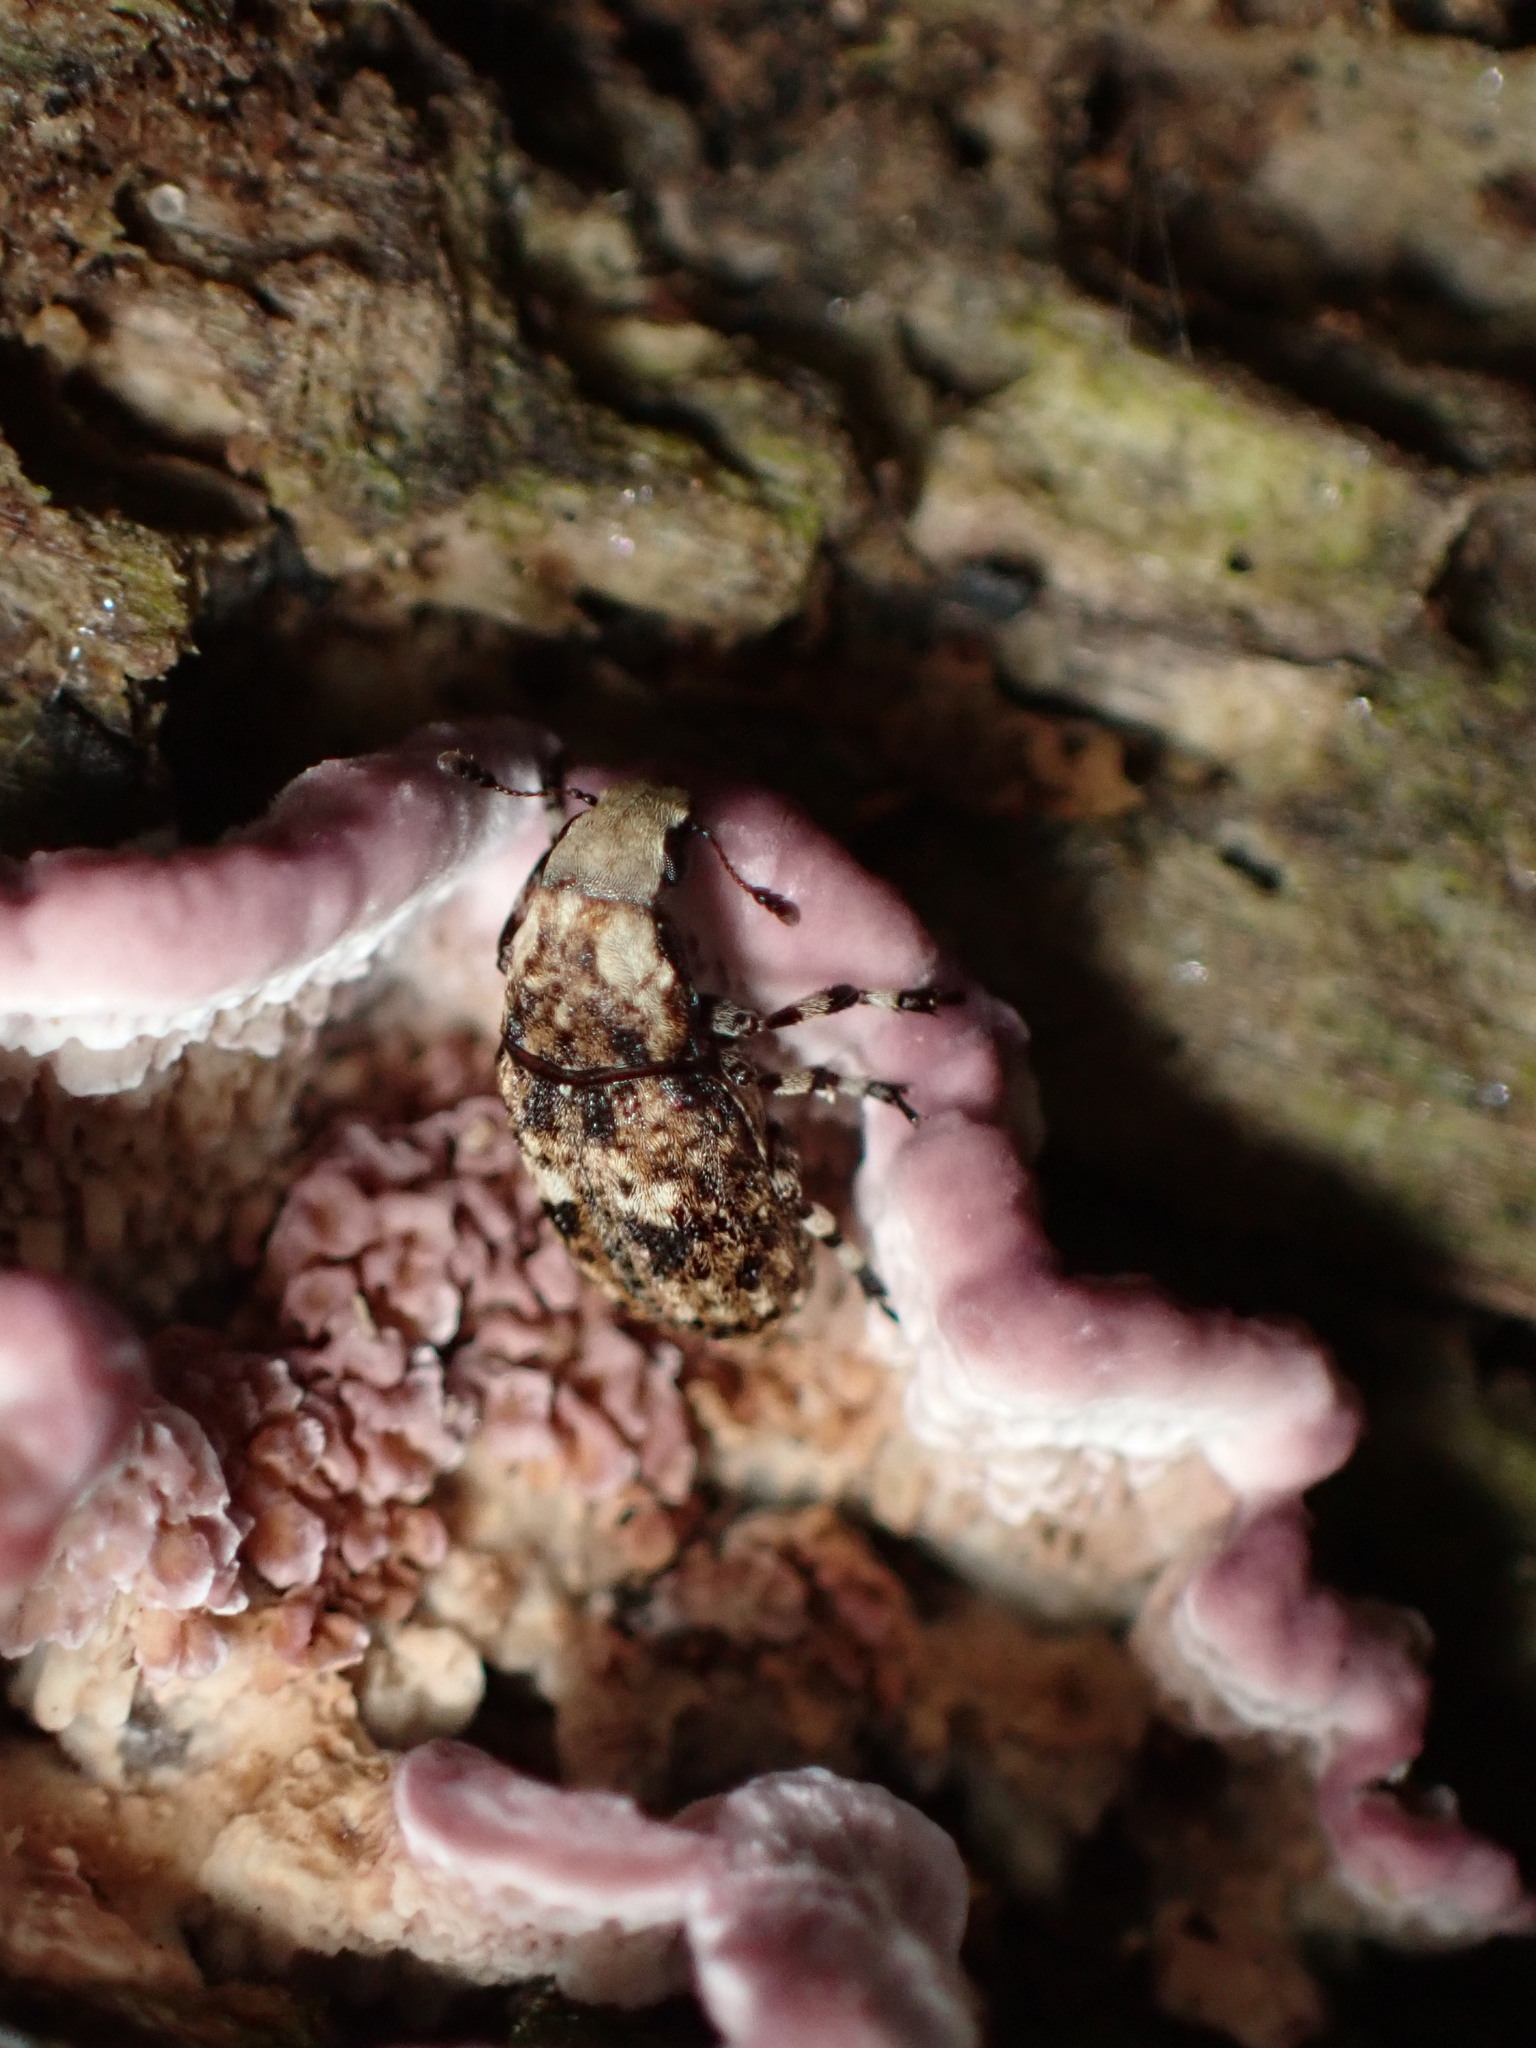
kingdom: Animalia
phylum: Arthropoda
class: Insecta
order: Coleoptera
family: Anthribidae
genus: Euparius
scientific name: Euparius marmoreus
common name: Marbled fungus weevil
